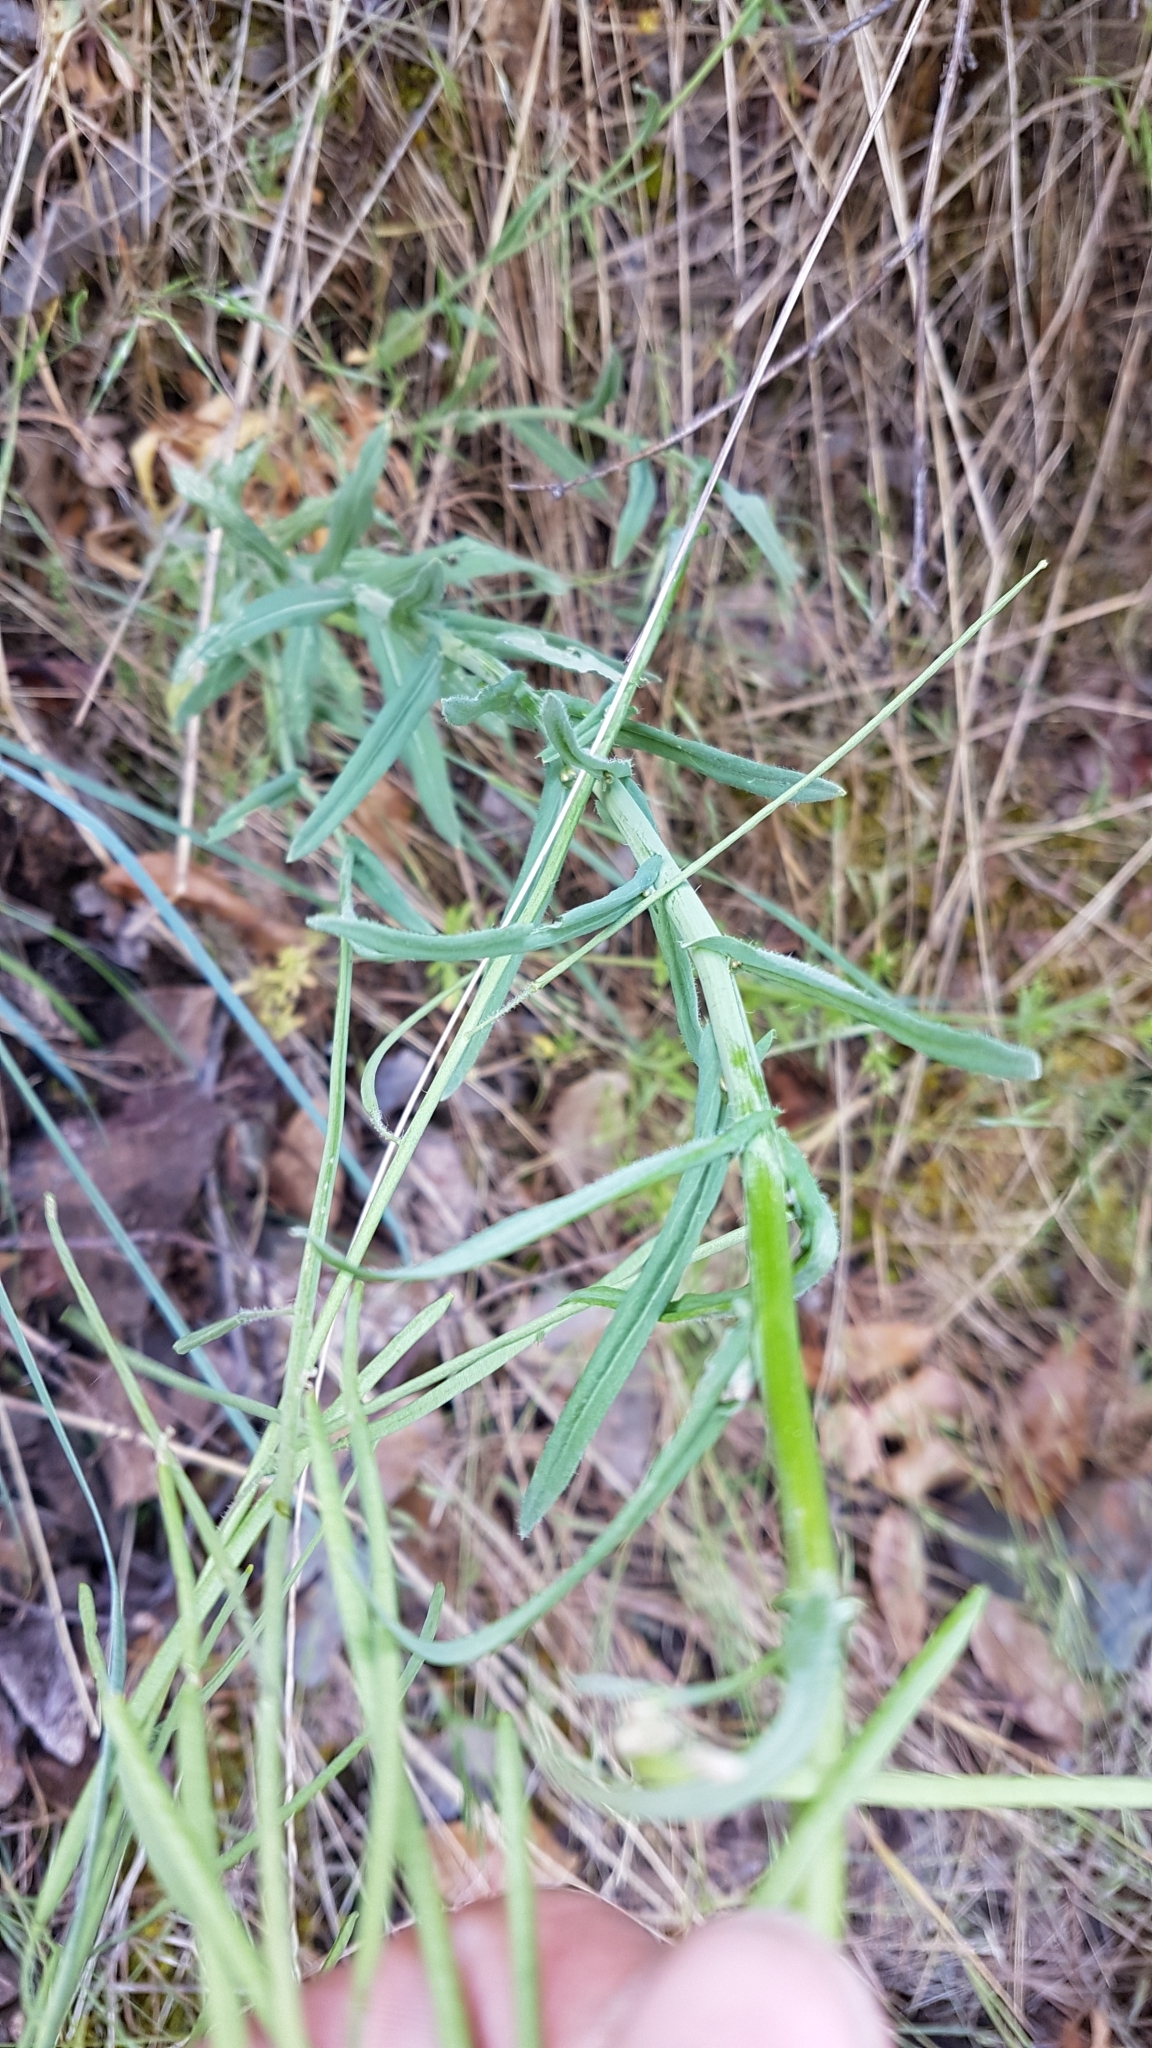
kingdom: Plantae
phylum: Tracheophyta
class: Magnoliopsida
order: Brassicales
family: Brassicaceae
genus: Boechera
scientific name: Boechera retrofracta
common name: Dangling suncress
